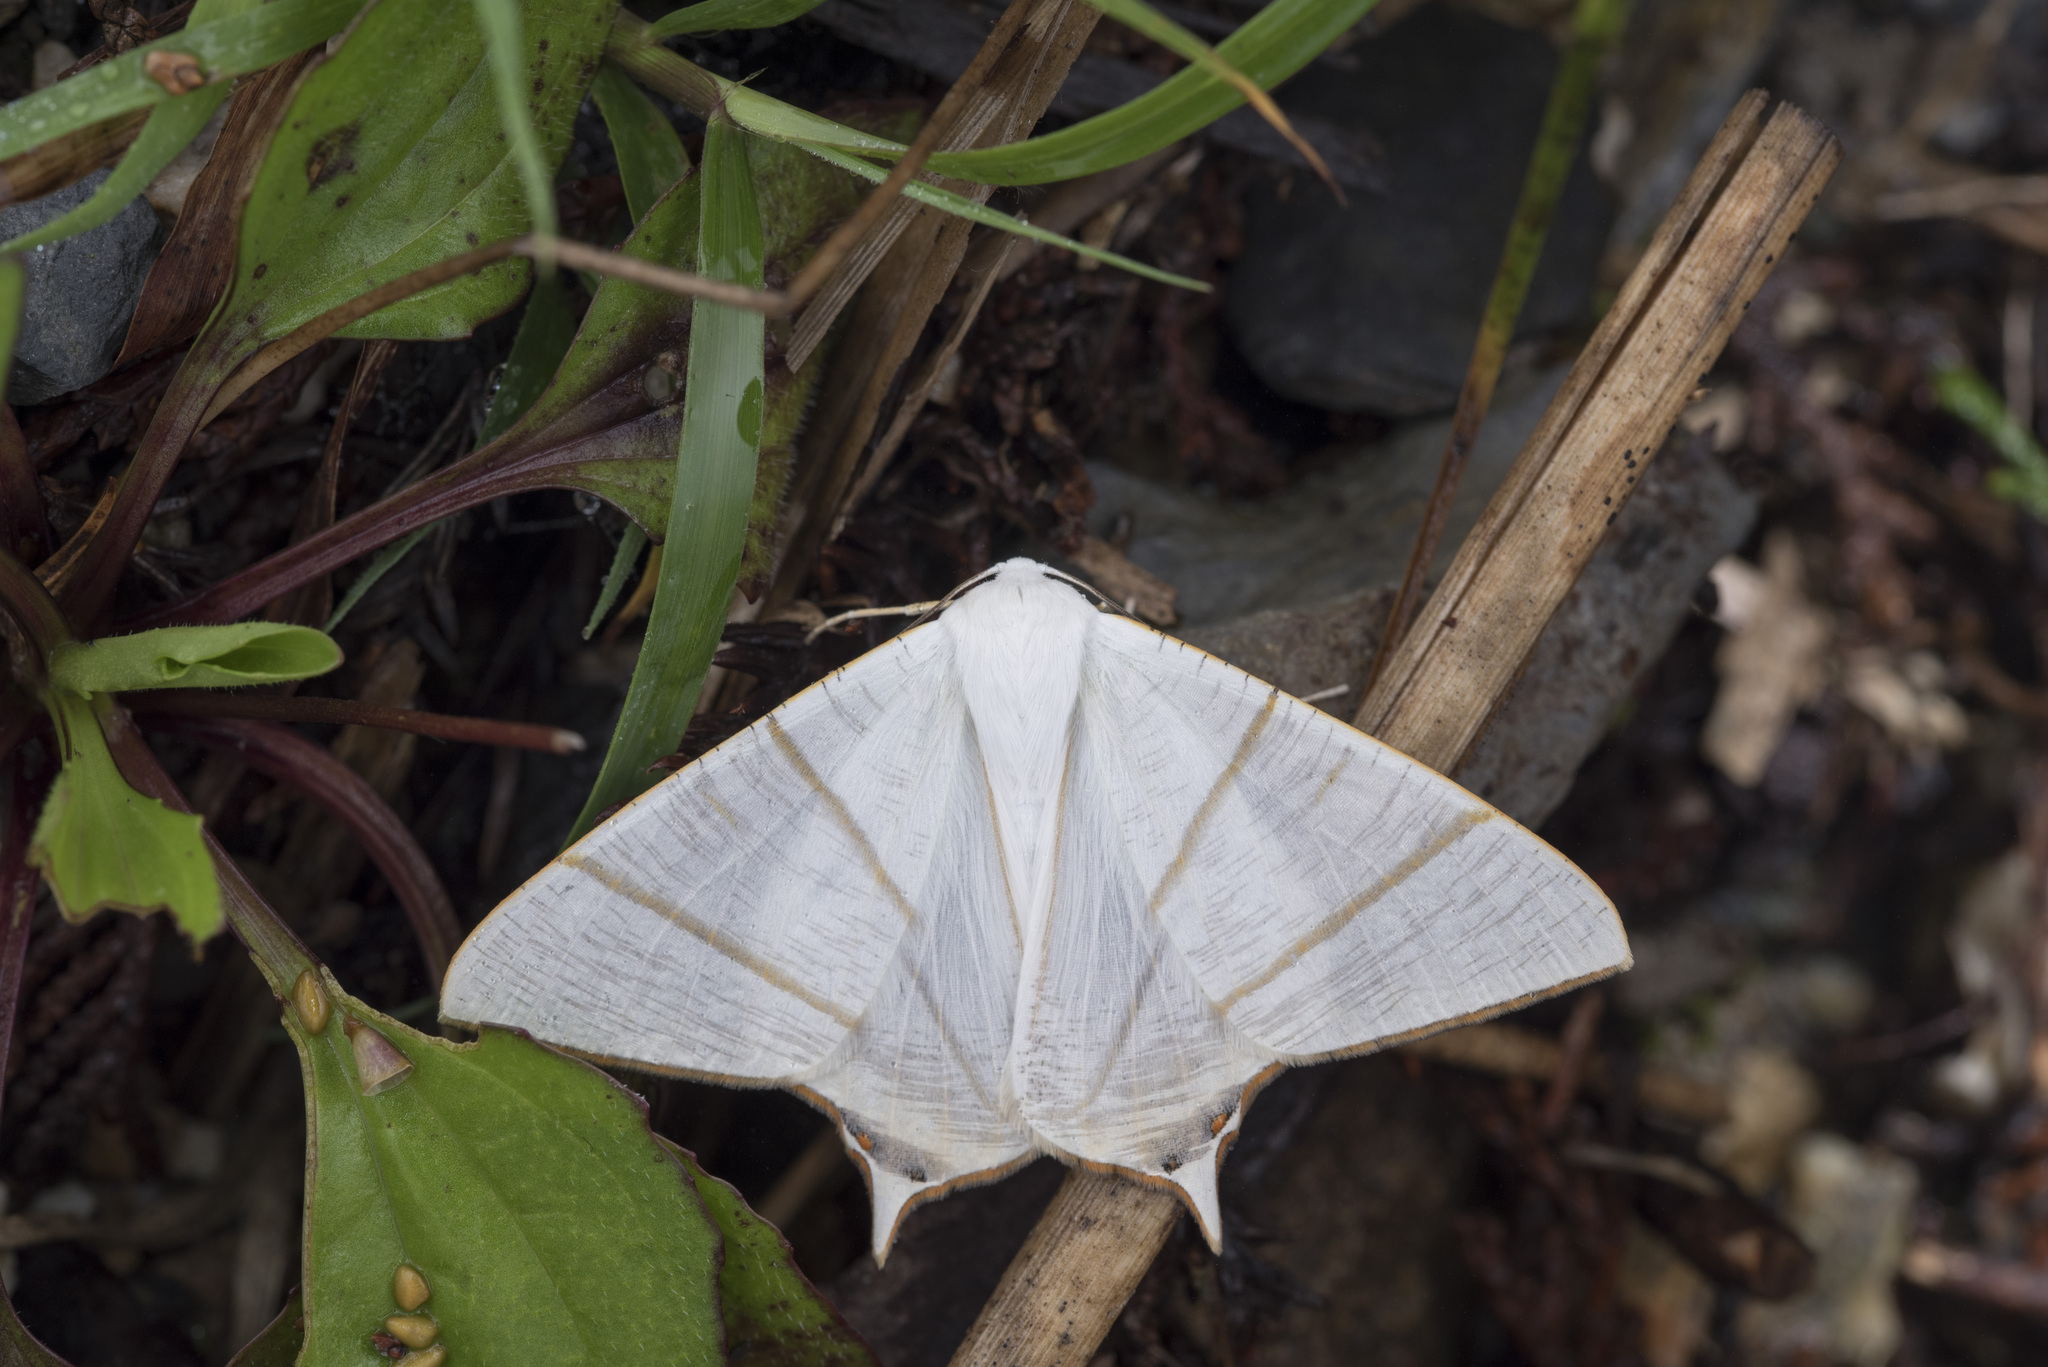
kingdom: Animalia
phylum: Arthropoda
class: Insecta
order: Lepidoptera
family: Geometridae
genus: Ourapteryx
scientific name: Ourapteryx changi
